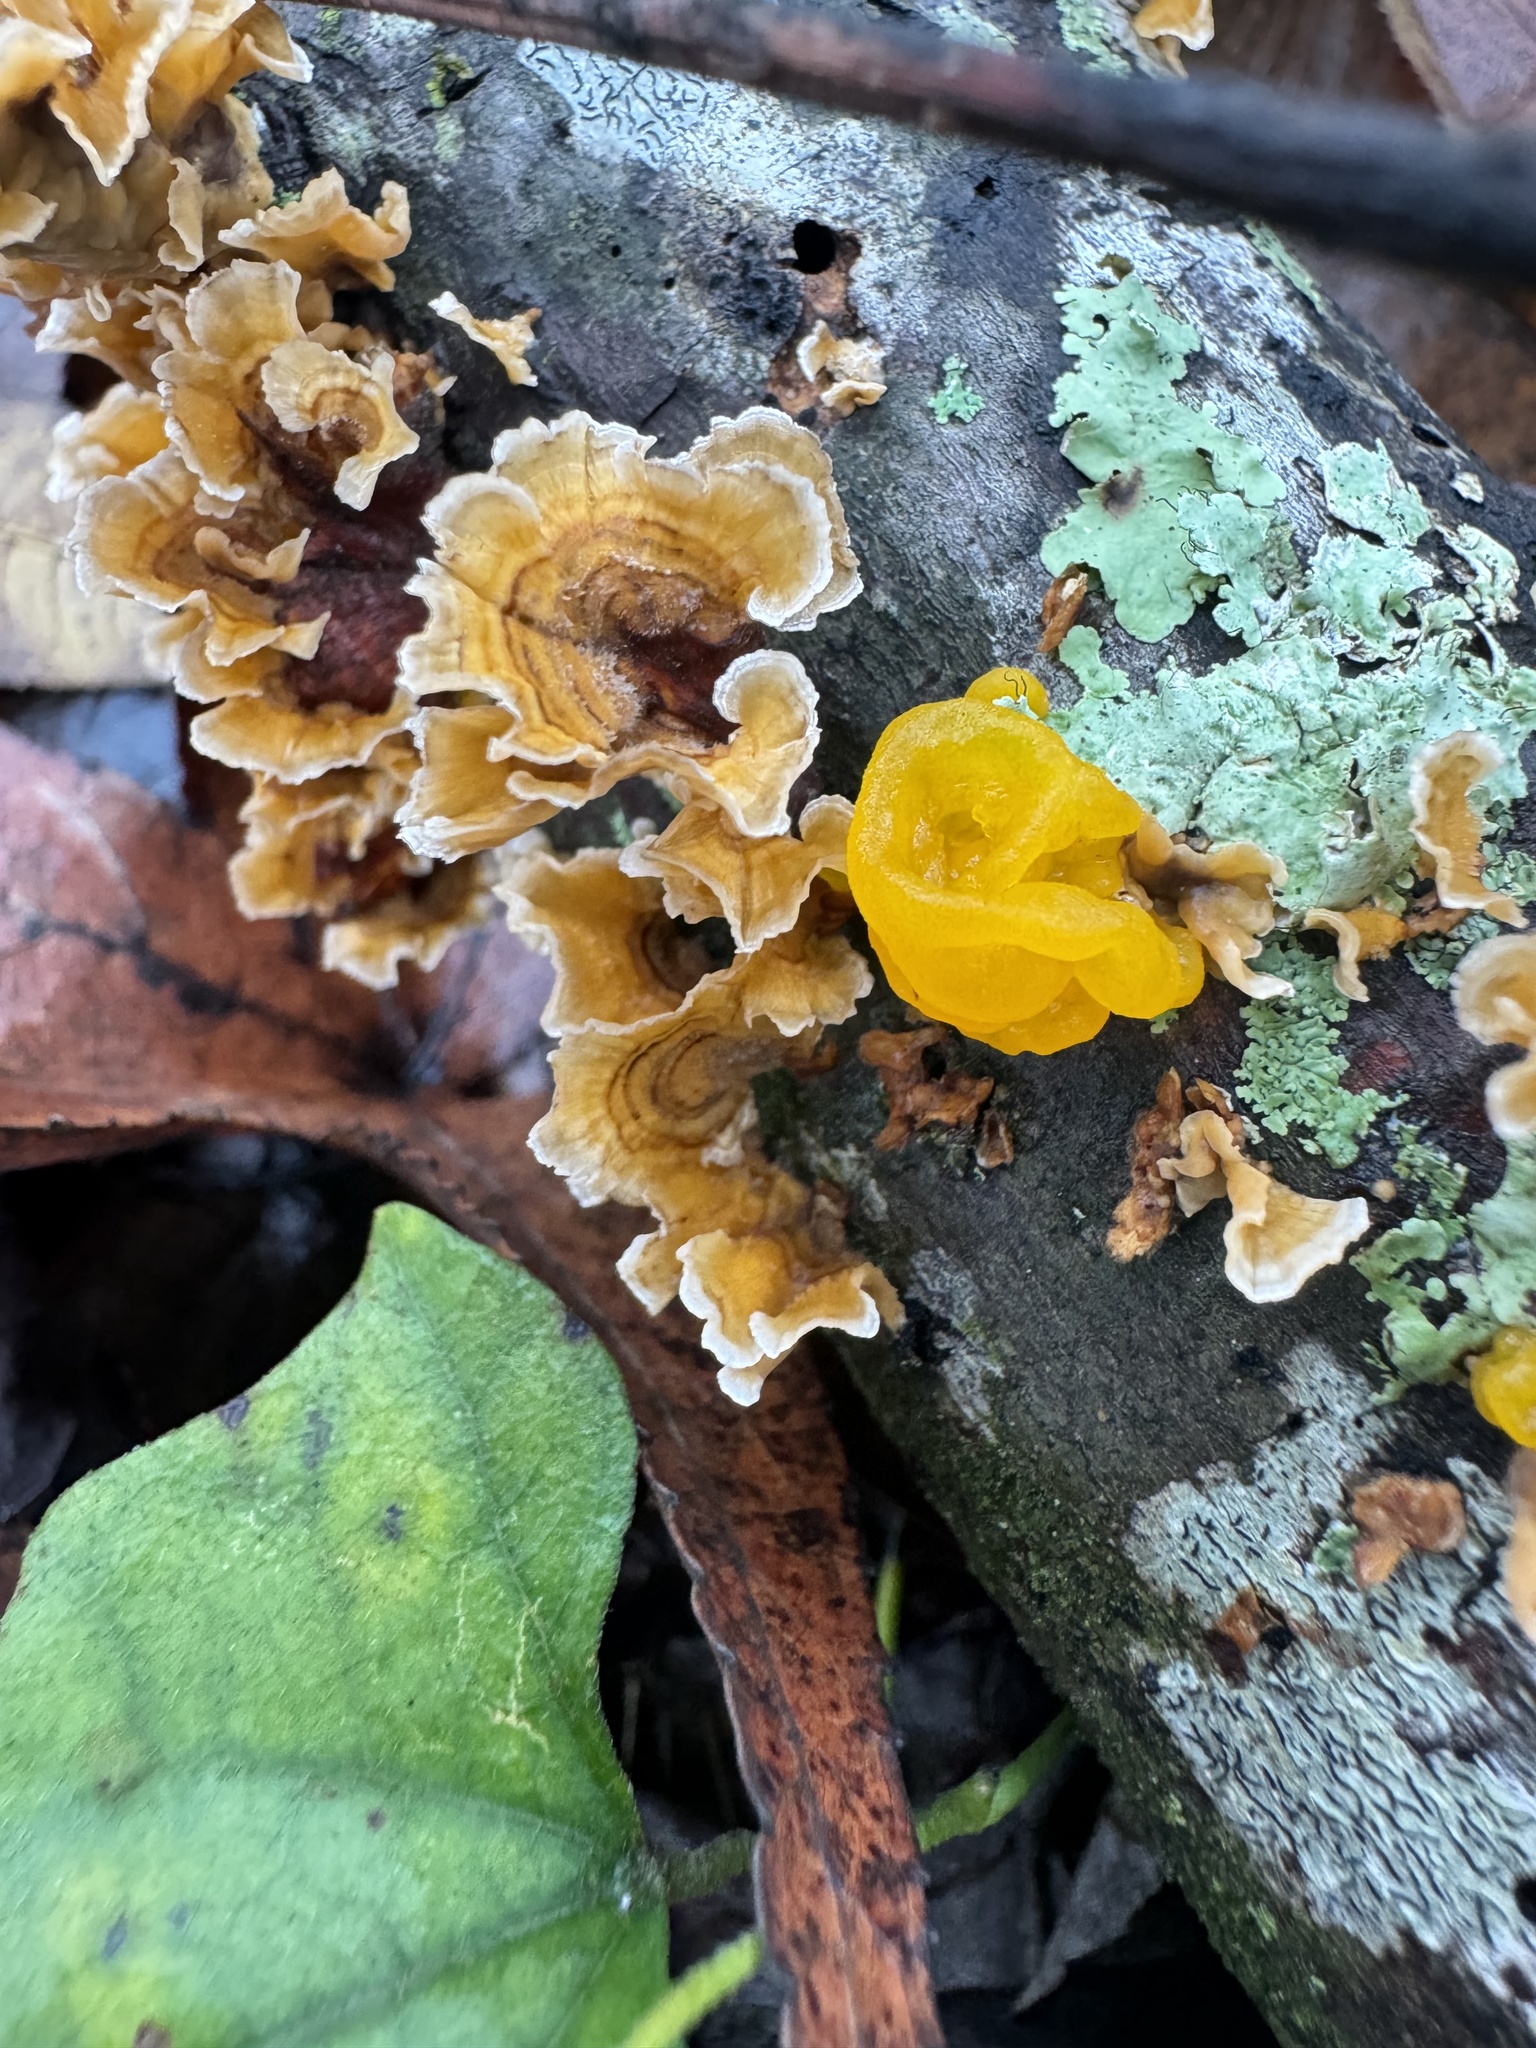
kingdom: Fungi
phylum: Basidiomycota
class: Tremellomycetes
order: Tremellales
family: Naemateliaceae
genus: Naematelia
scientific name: Naematelia aurantia
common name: Golden ear
